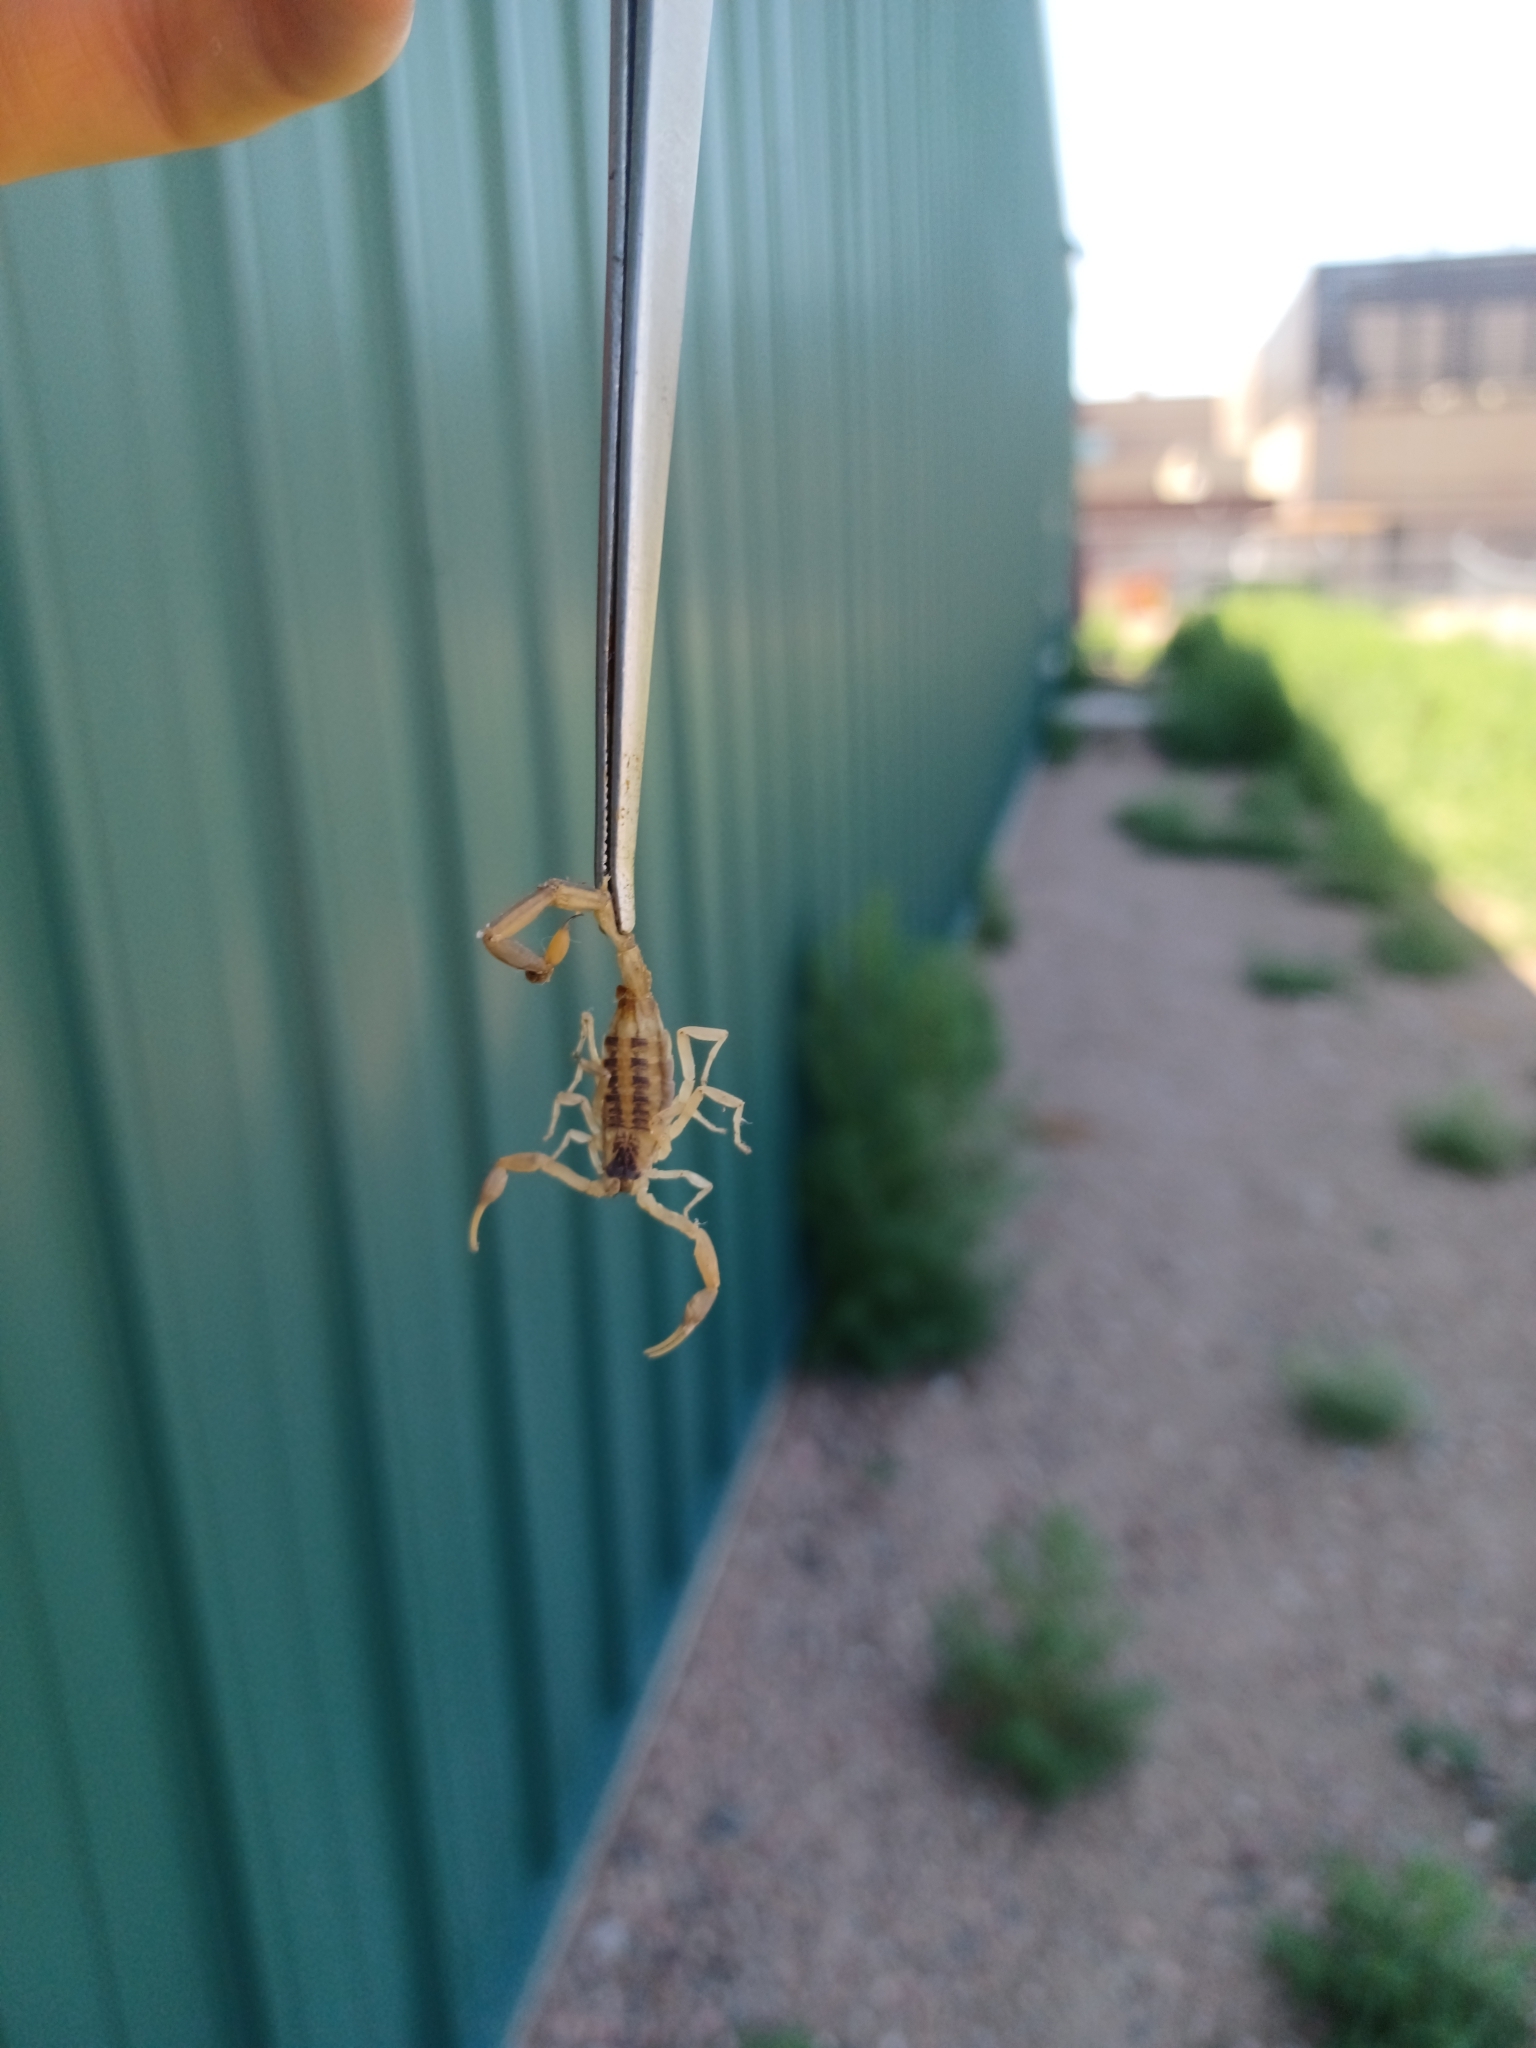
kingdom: Animalia
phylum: Arthropoda
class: Arachnida
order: Scorpiones
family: Buthidae
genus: Centruroides
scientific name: Centruroides vittatus
